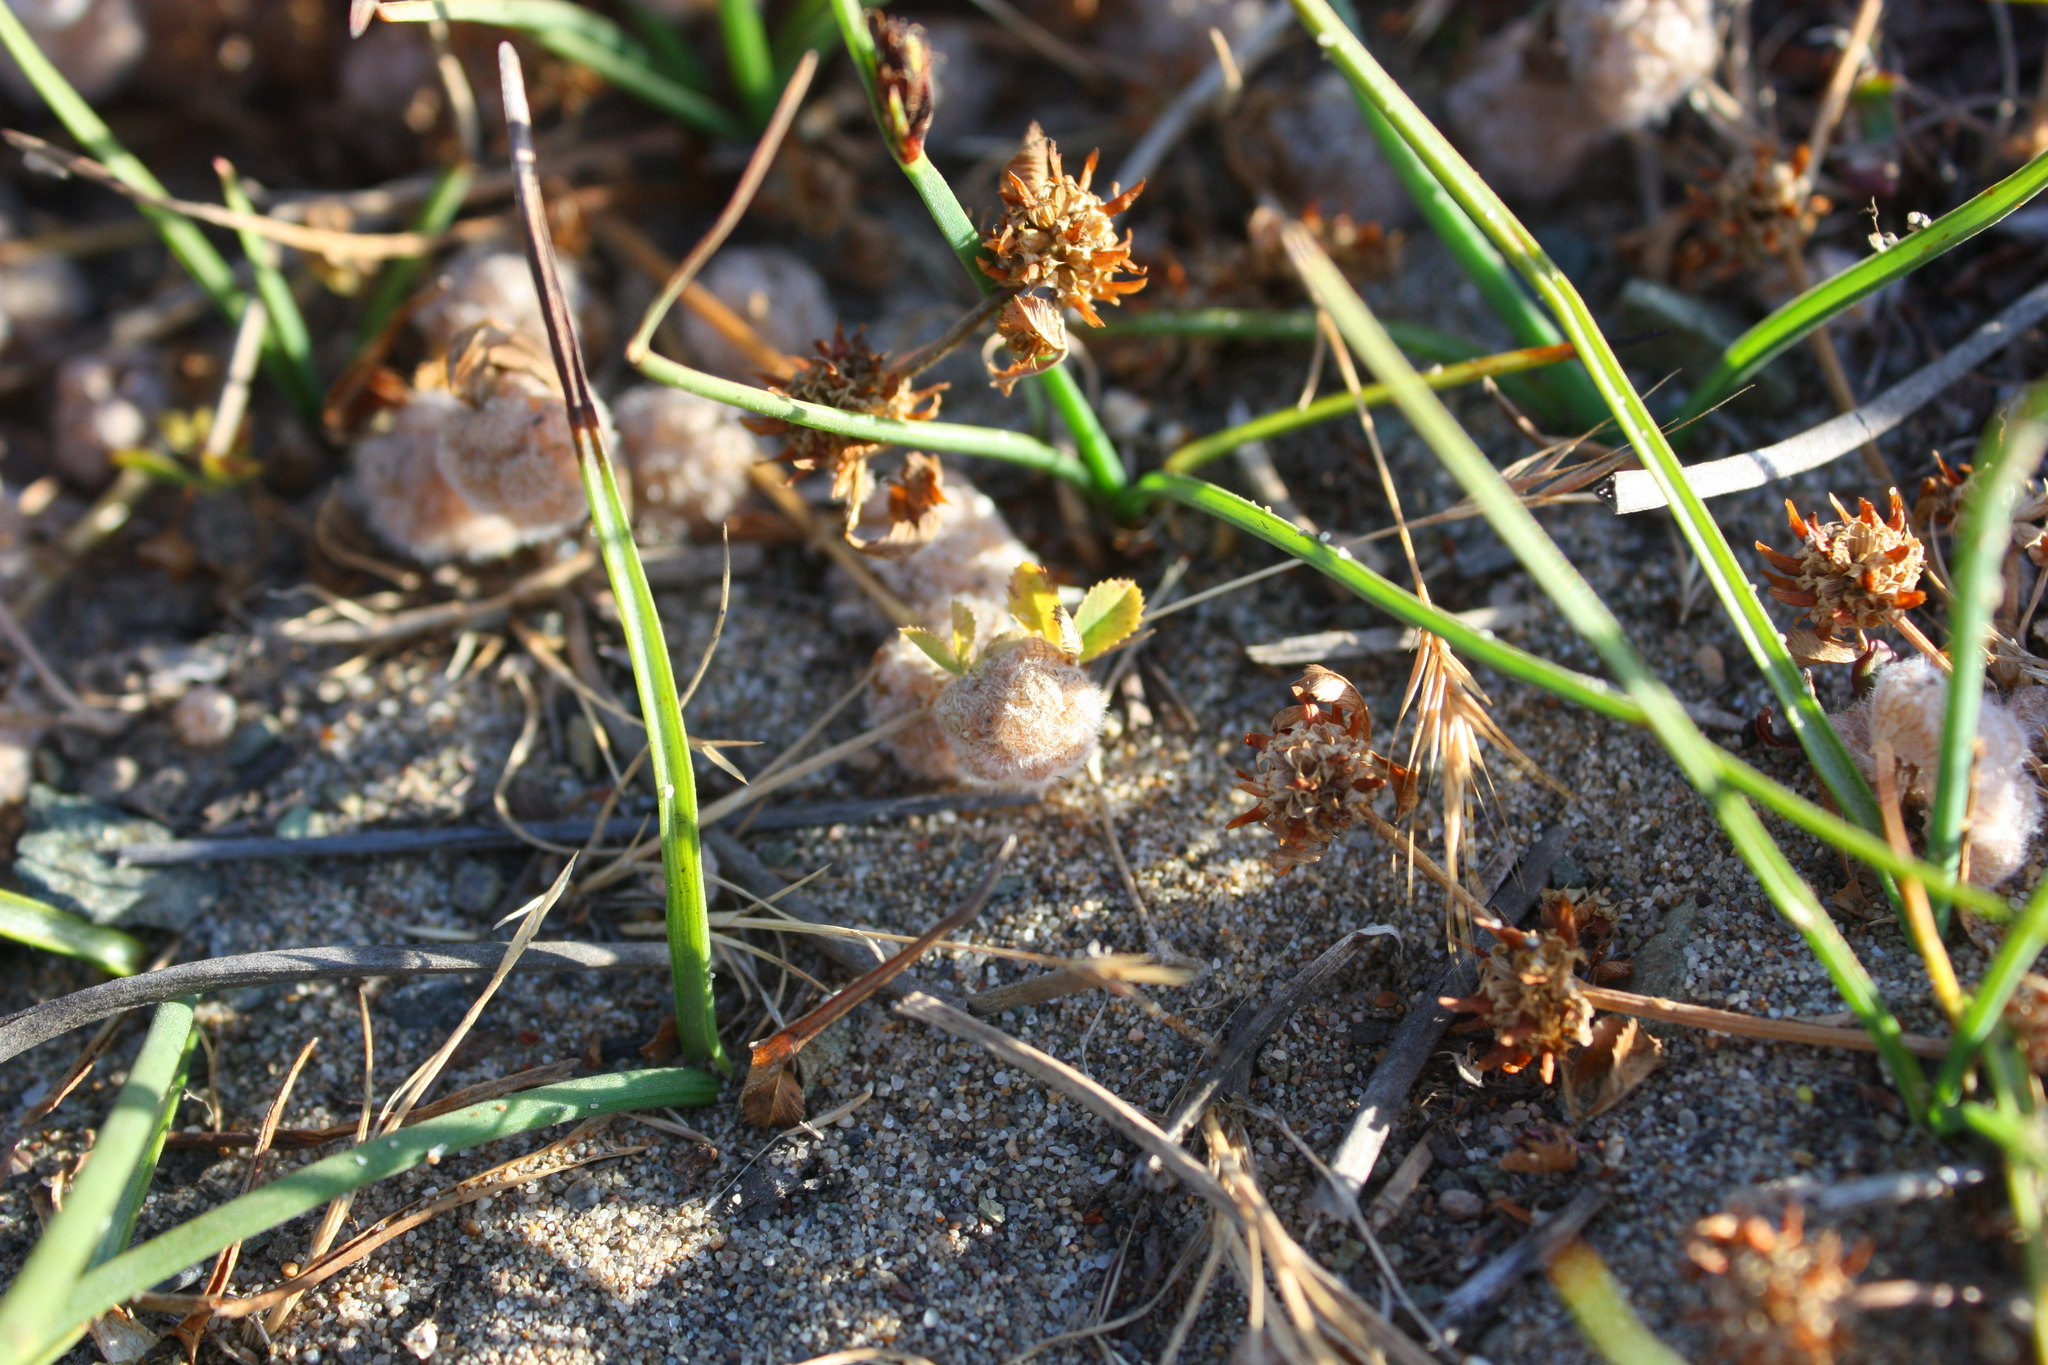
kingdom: Plantae
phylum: Tracheophyta
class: Magnoliopsida
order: Fabales
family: Fabaceae
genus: Trifolium
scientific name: Trifolium tomentosum
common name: Woolly clover
